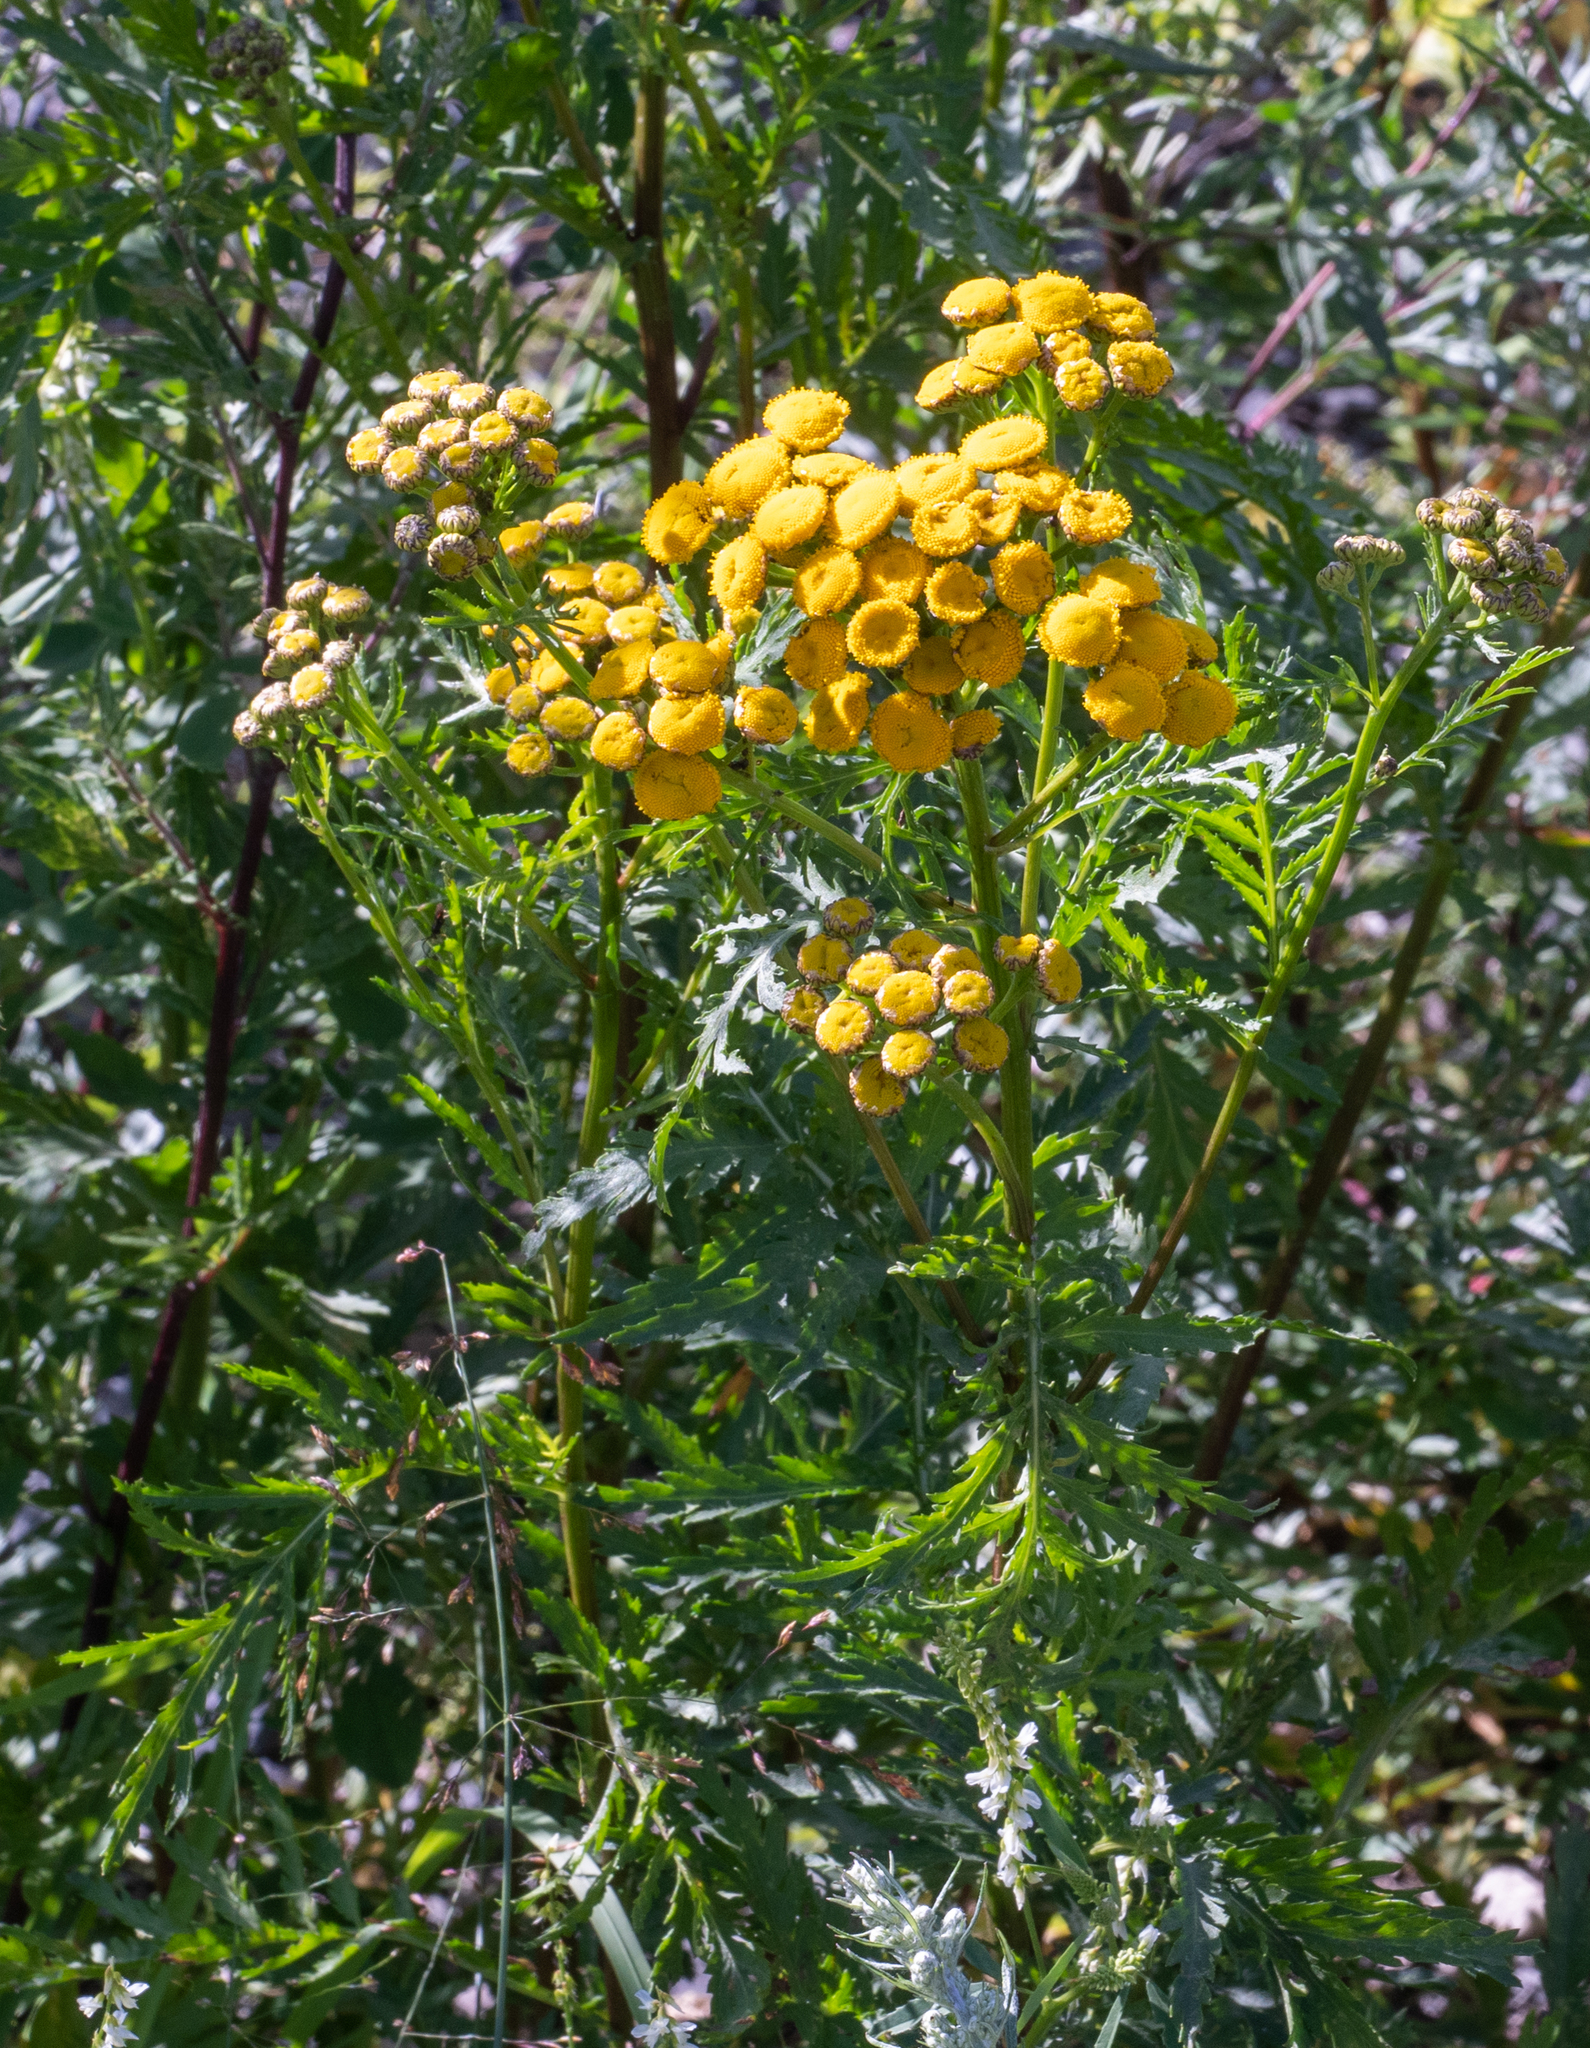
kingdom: Plantae
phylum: Tracheophyta
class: Magnoliopsida
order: Asterales
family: Asteraceae
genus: Tanacetum
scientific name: Tanacetum vulgare
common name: Common tansy
